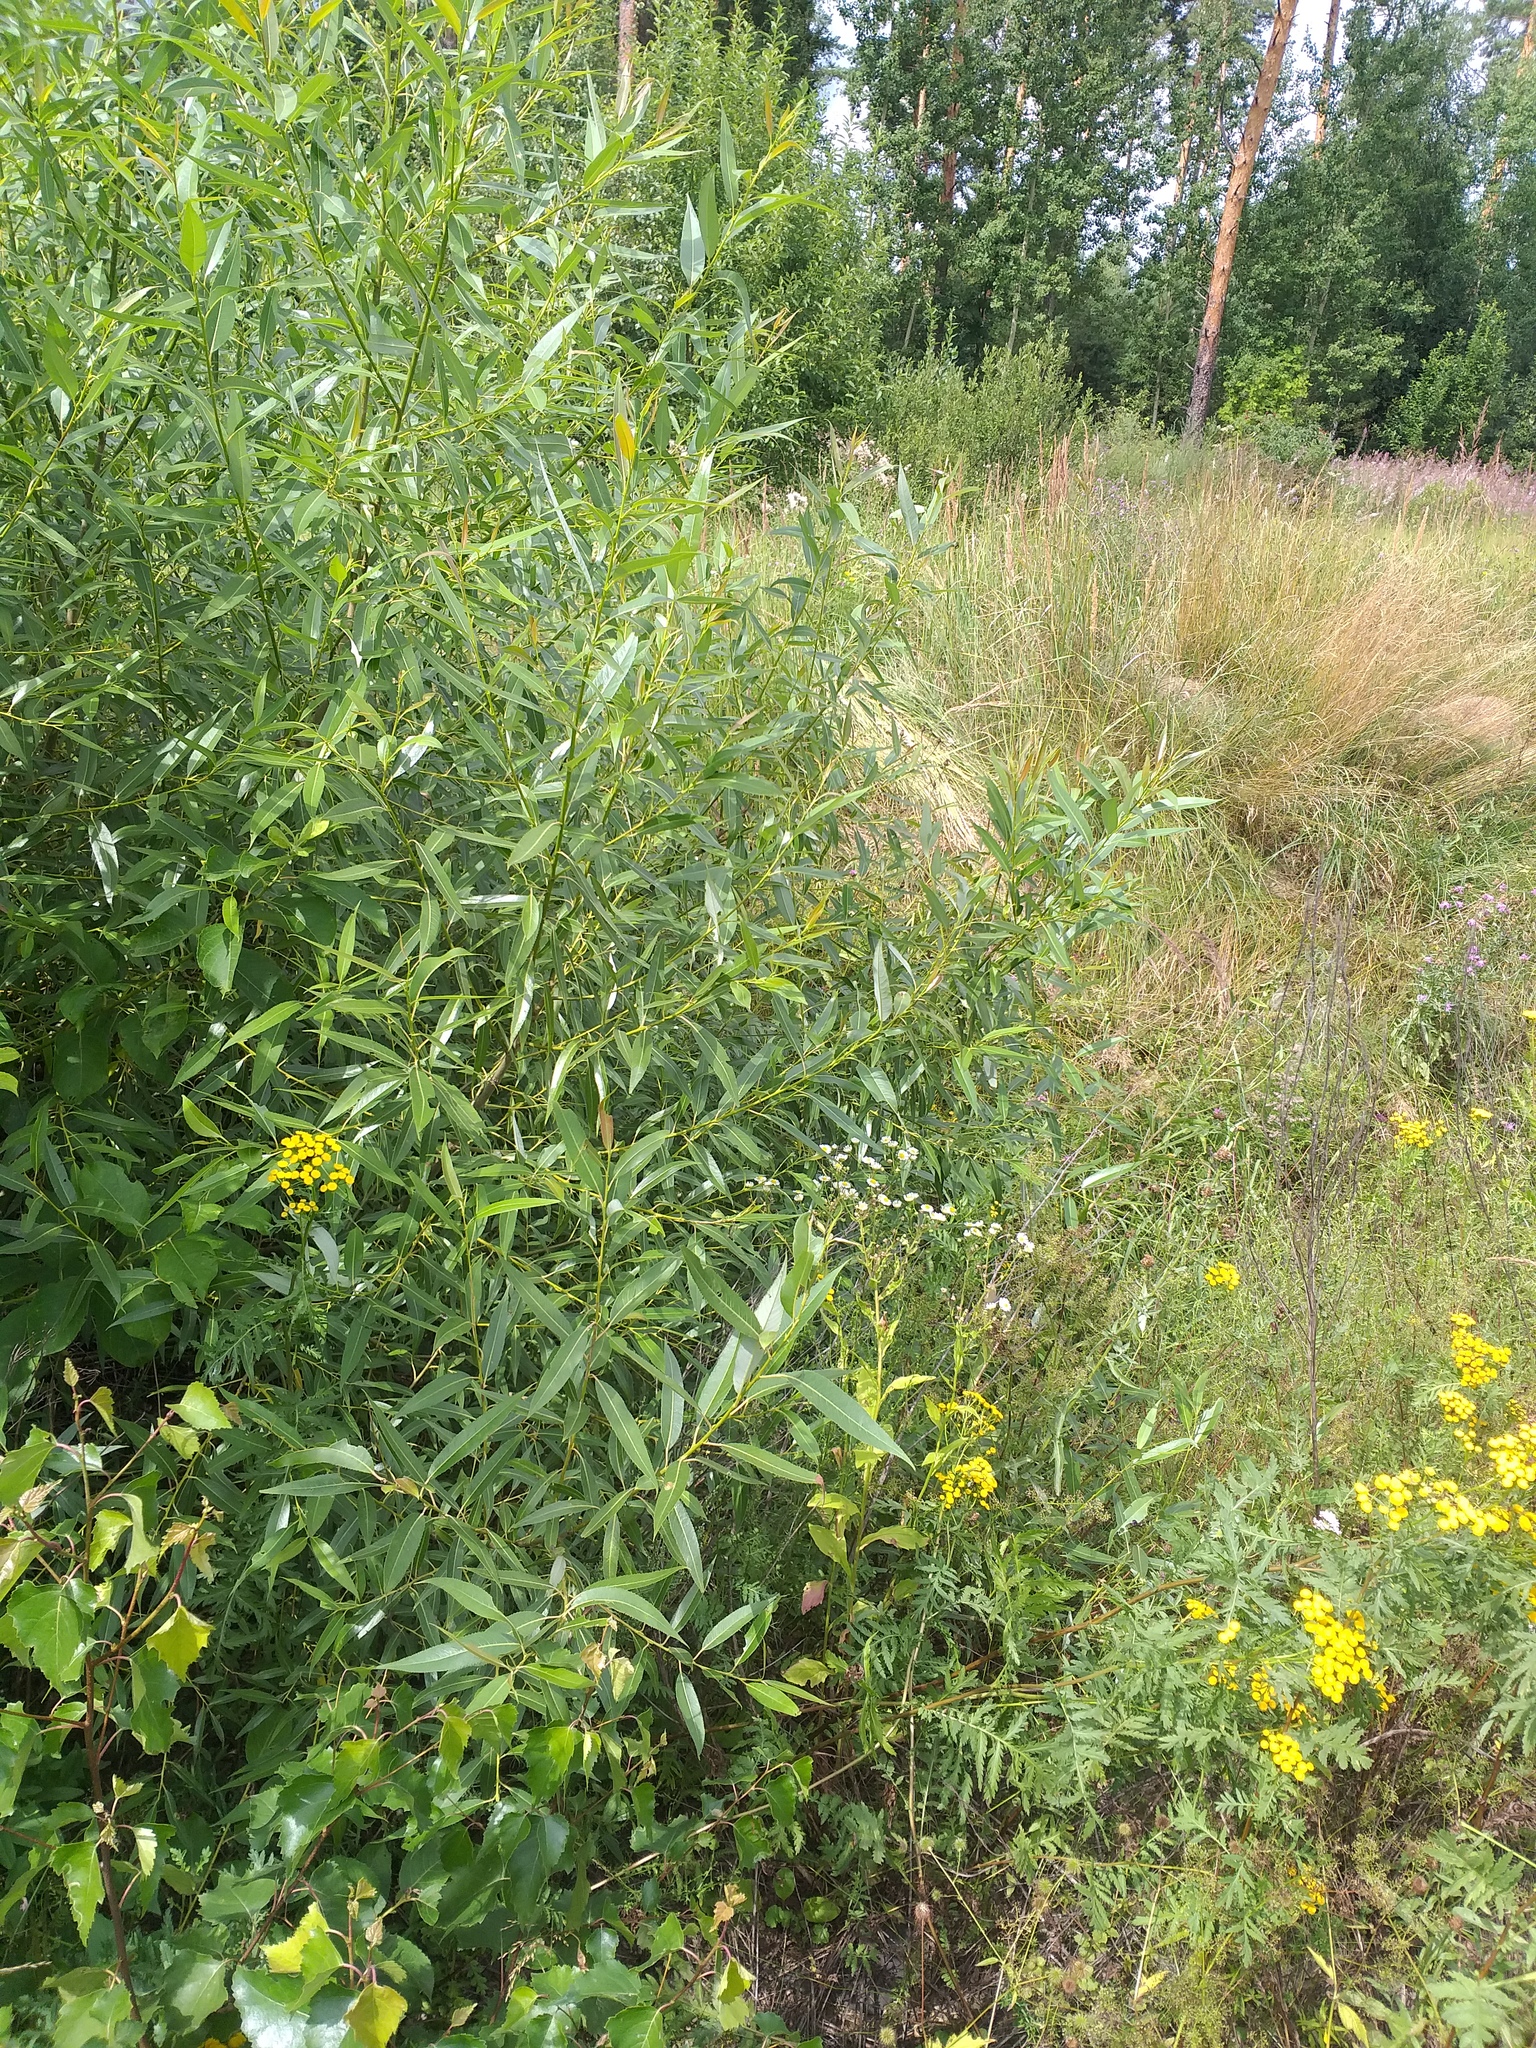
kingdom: Plantae
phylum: Tracheophyta
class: Magnoliopsida
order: Malpighiales
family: Salicaceae
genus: Salix
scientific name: Salix triandra
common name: Almond willow
